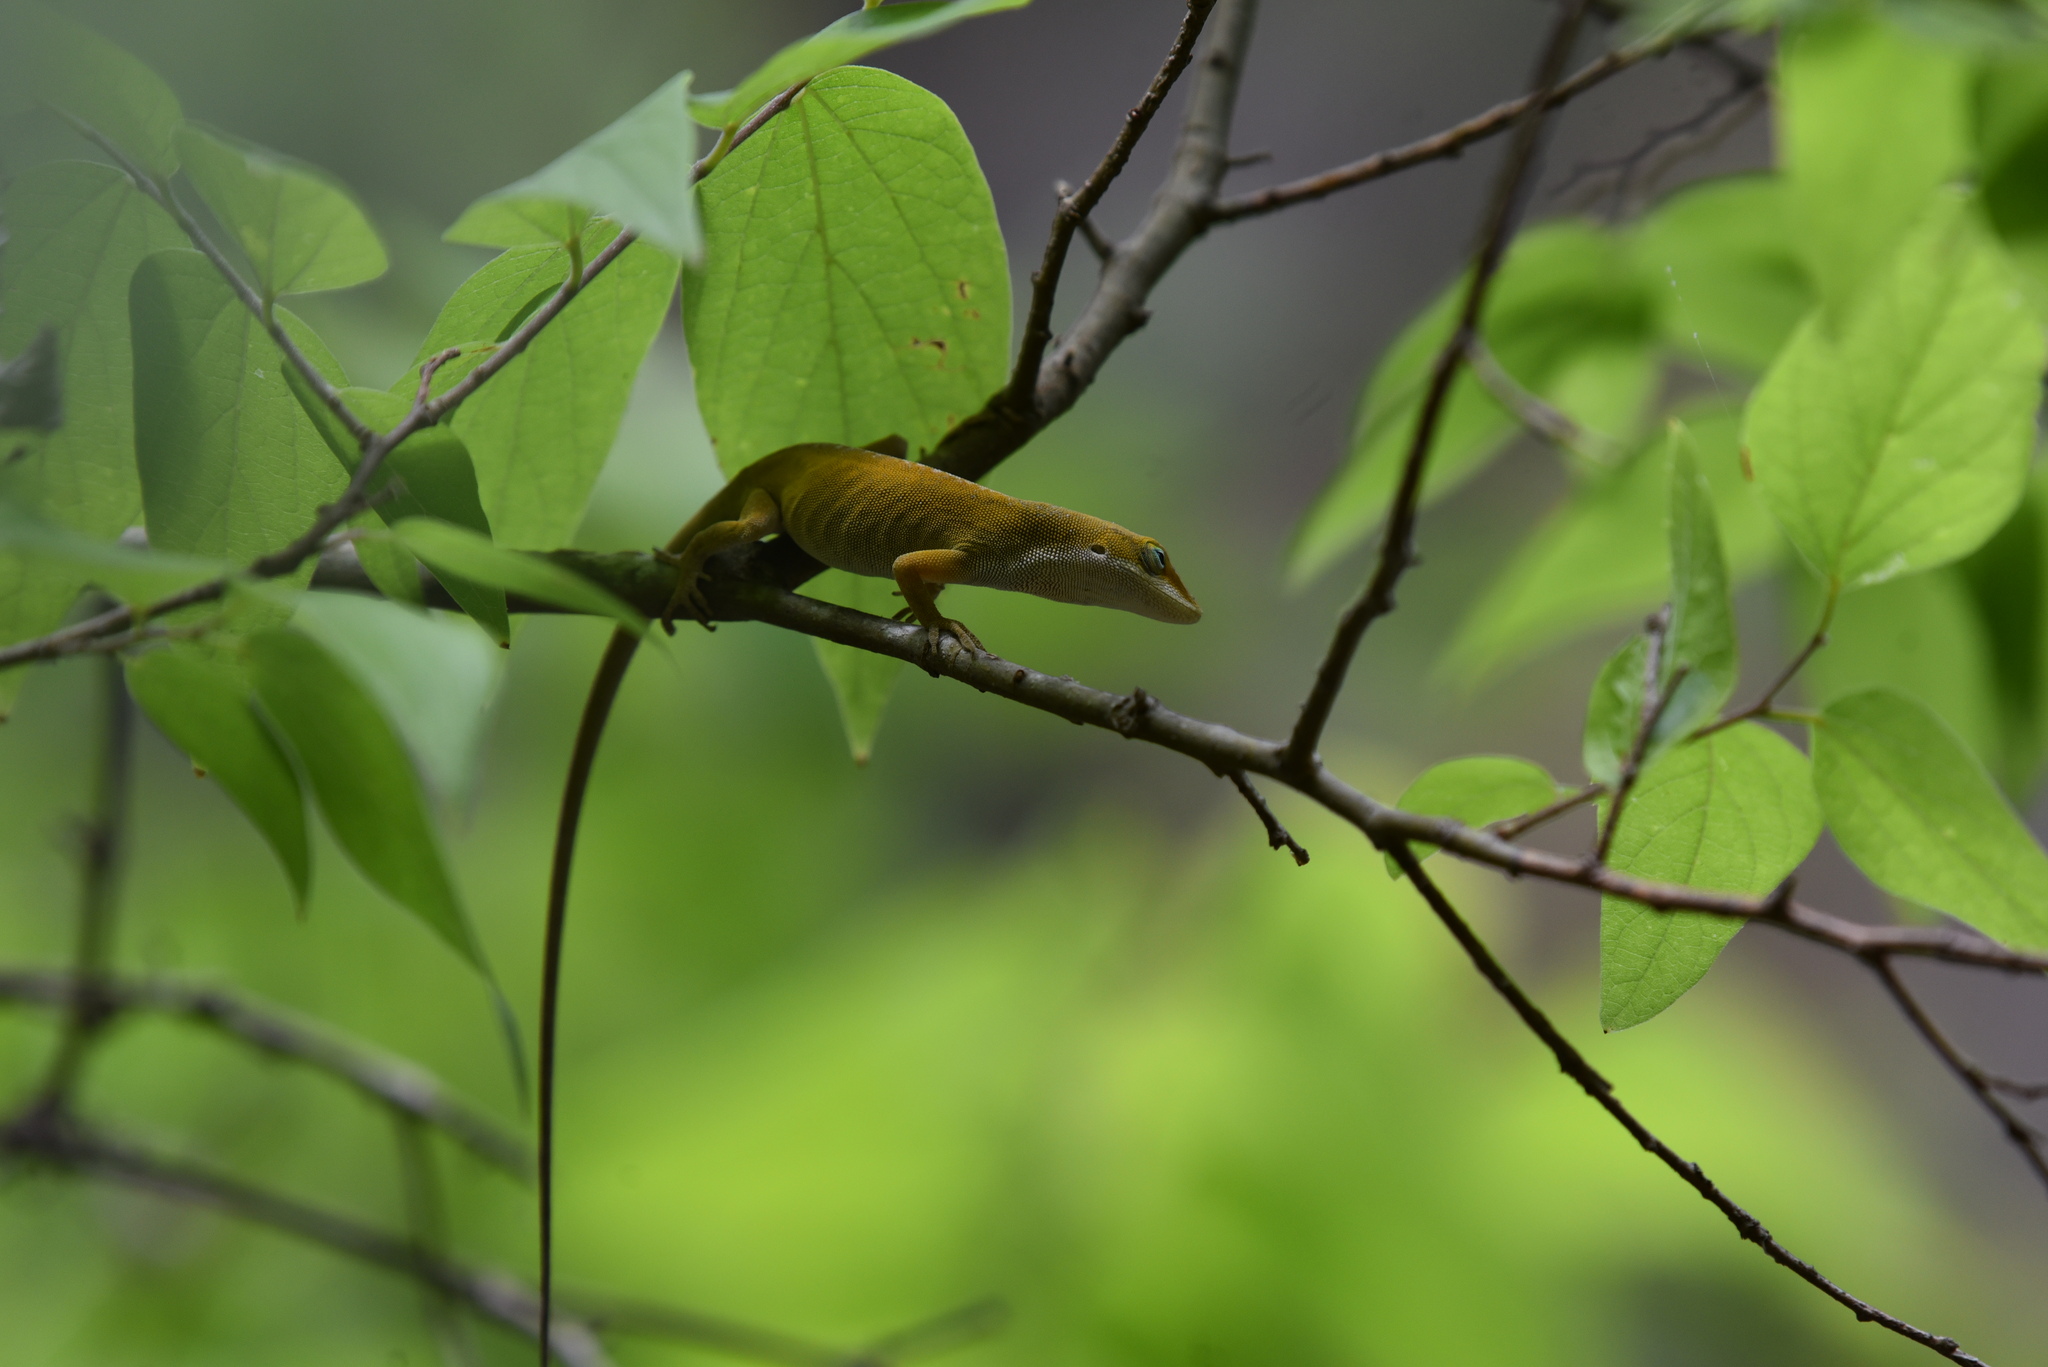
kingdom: Animalia
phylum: Chordata
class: Squamata
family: Dactyloidae
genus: Anolis
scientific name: Anolis carolinensis
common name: Green anole
